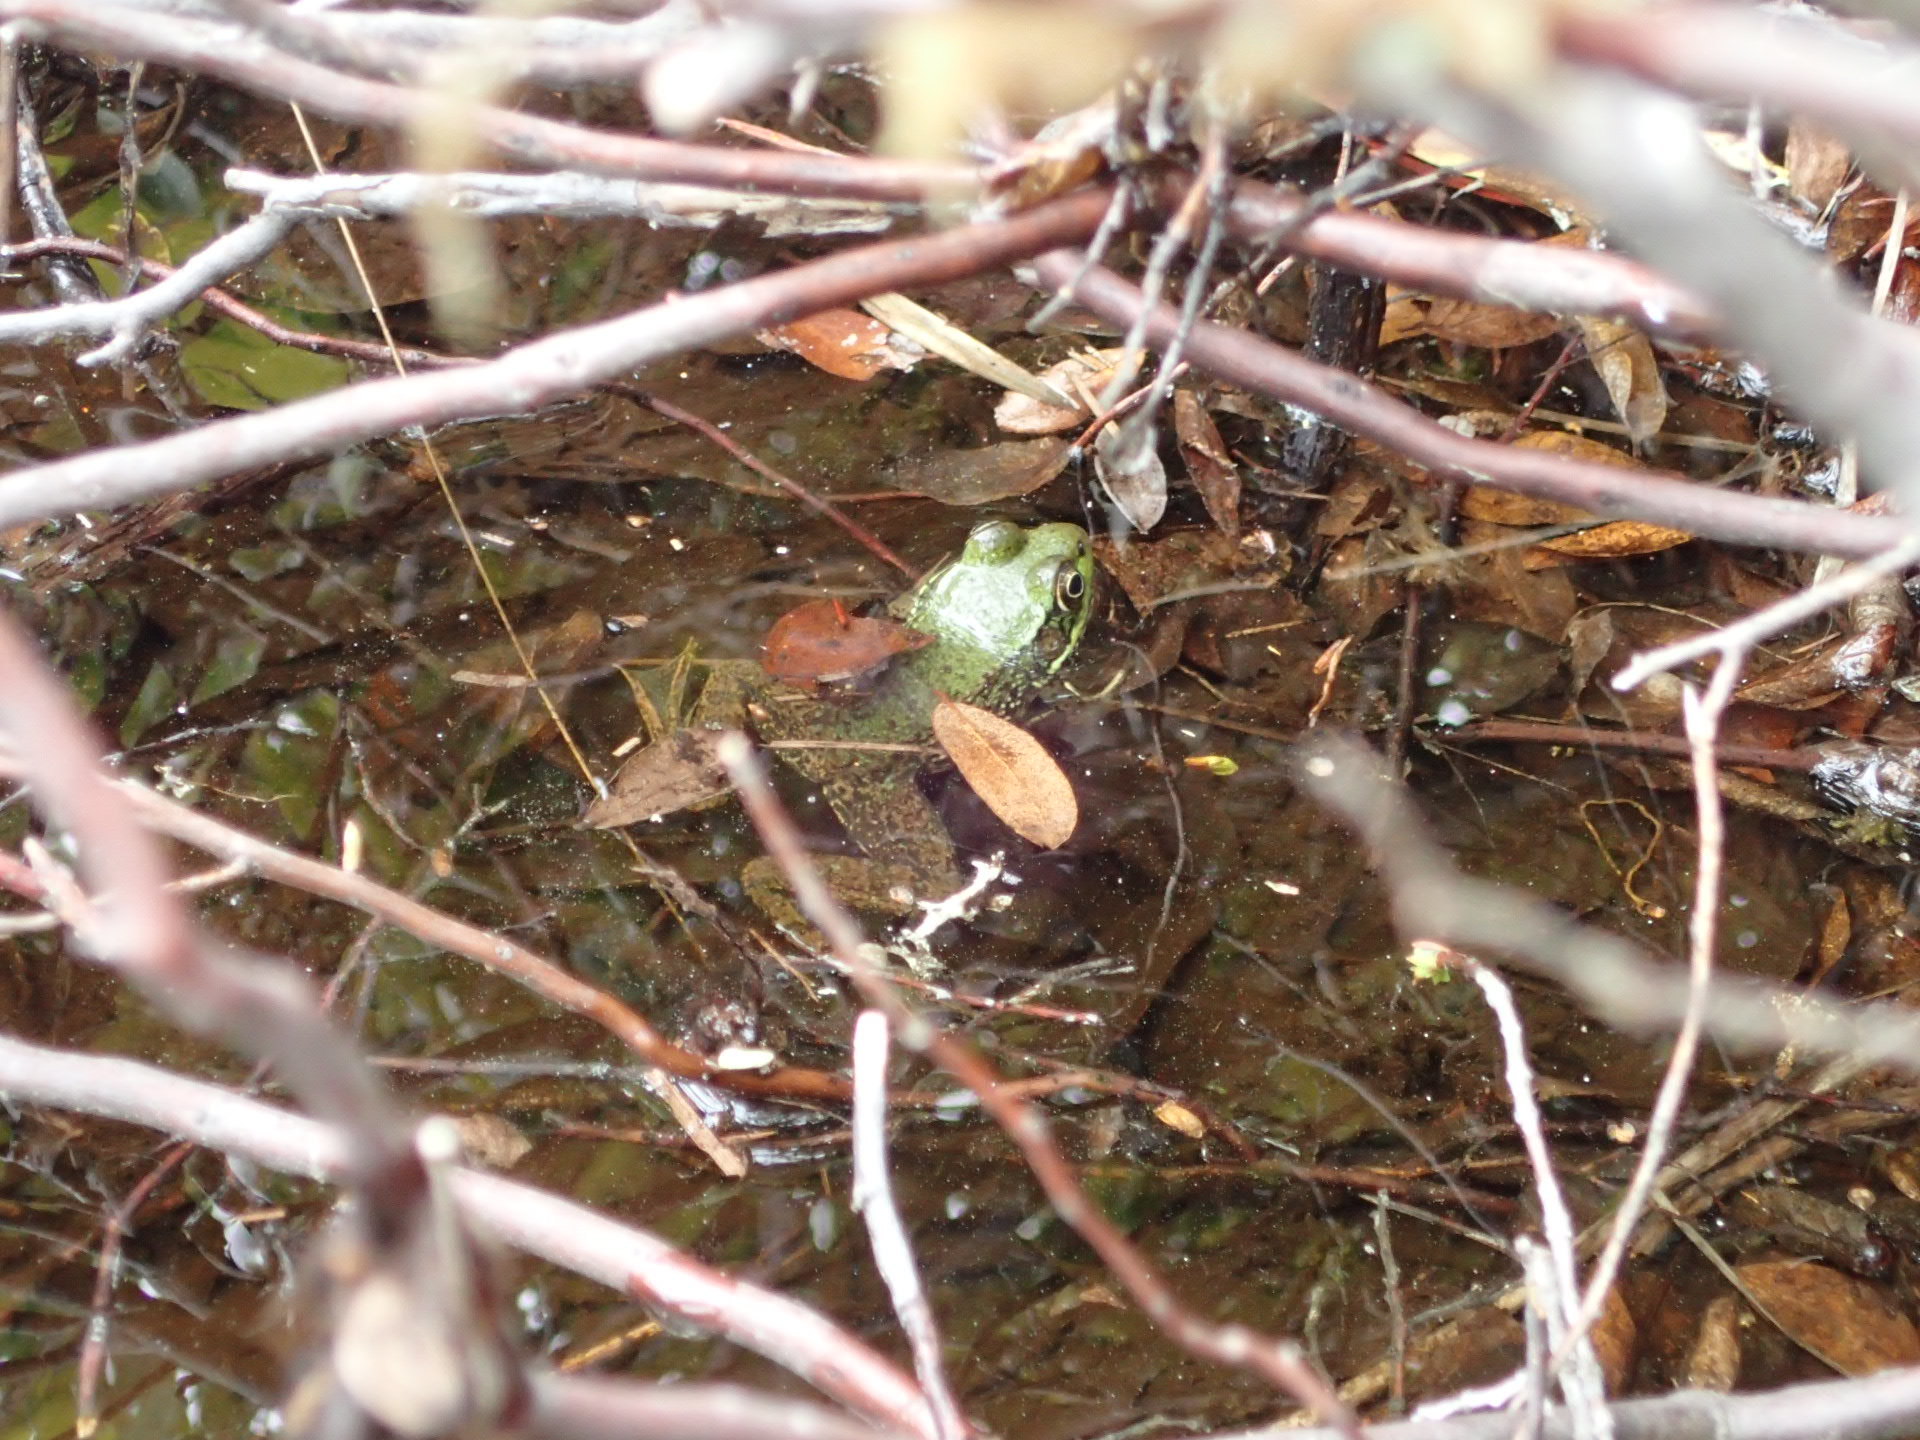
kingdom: Animalia
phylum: Chordata
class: Amphibia
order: Anura
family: Ranidae
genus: Lithobates
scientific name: Lithobates clamitans
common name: Green frog
